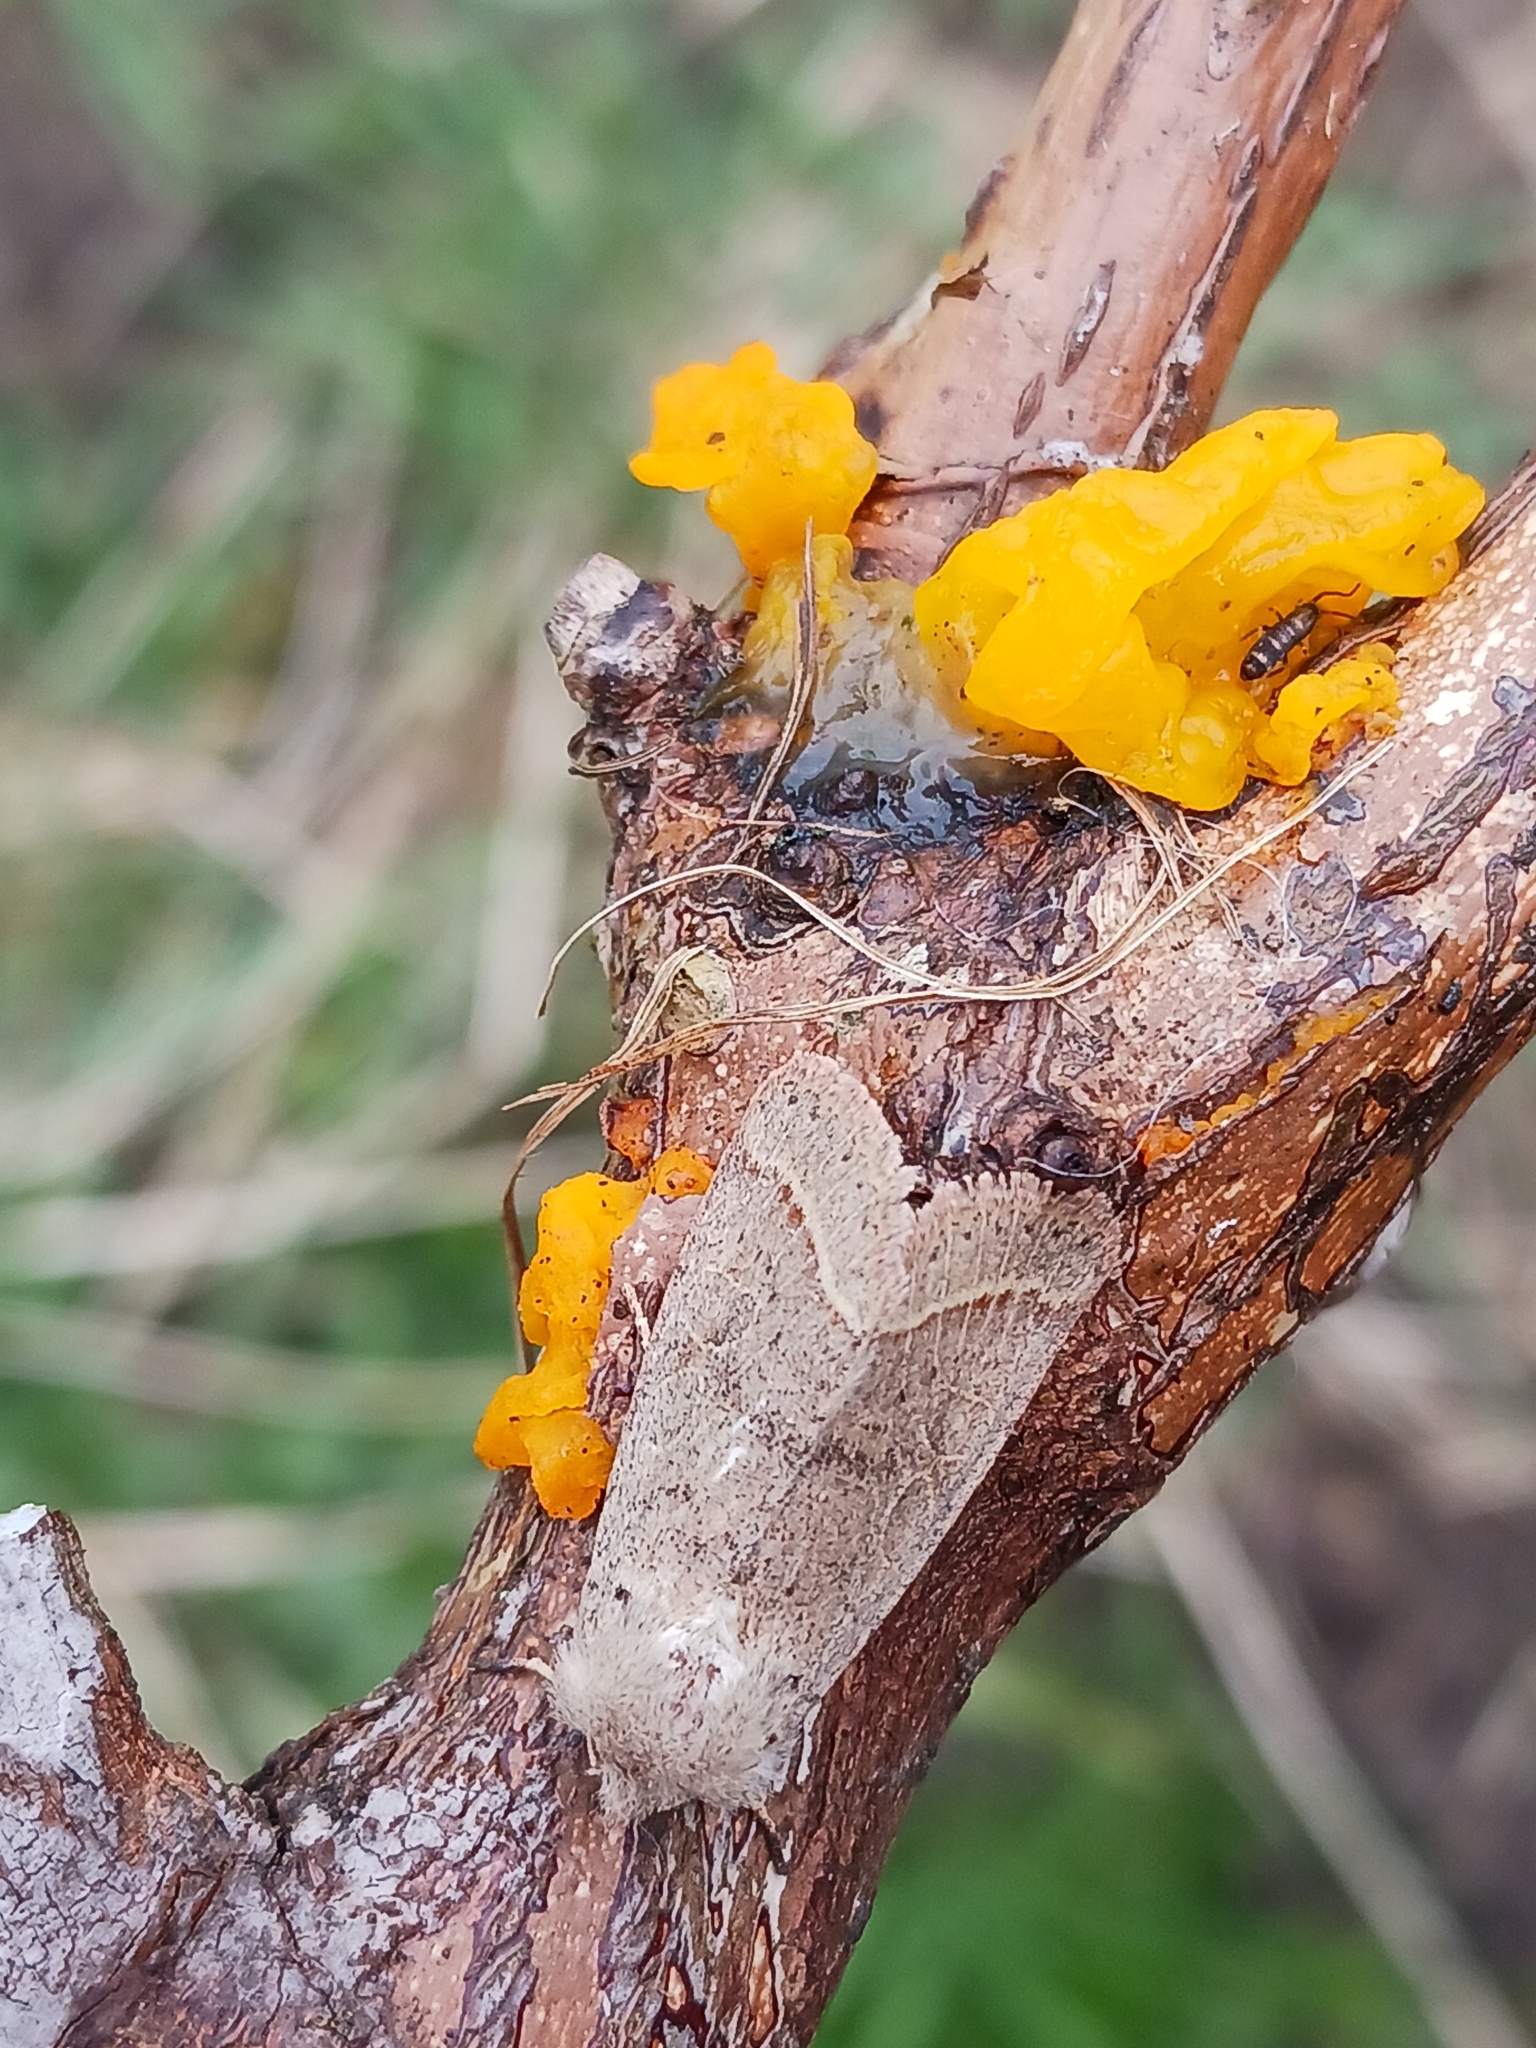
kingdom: Animalia
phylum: Arthropoda
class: Insecta
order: Lepidoptera
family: Noctuidae
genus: Orthosia
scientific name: Orthosia cerasi
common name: Common quaker
